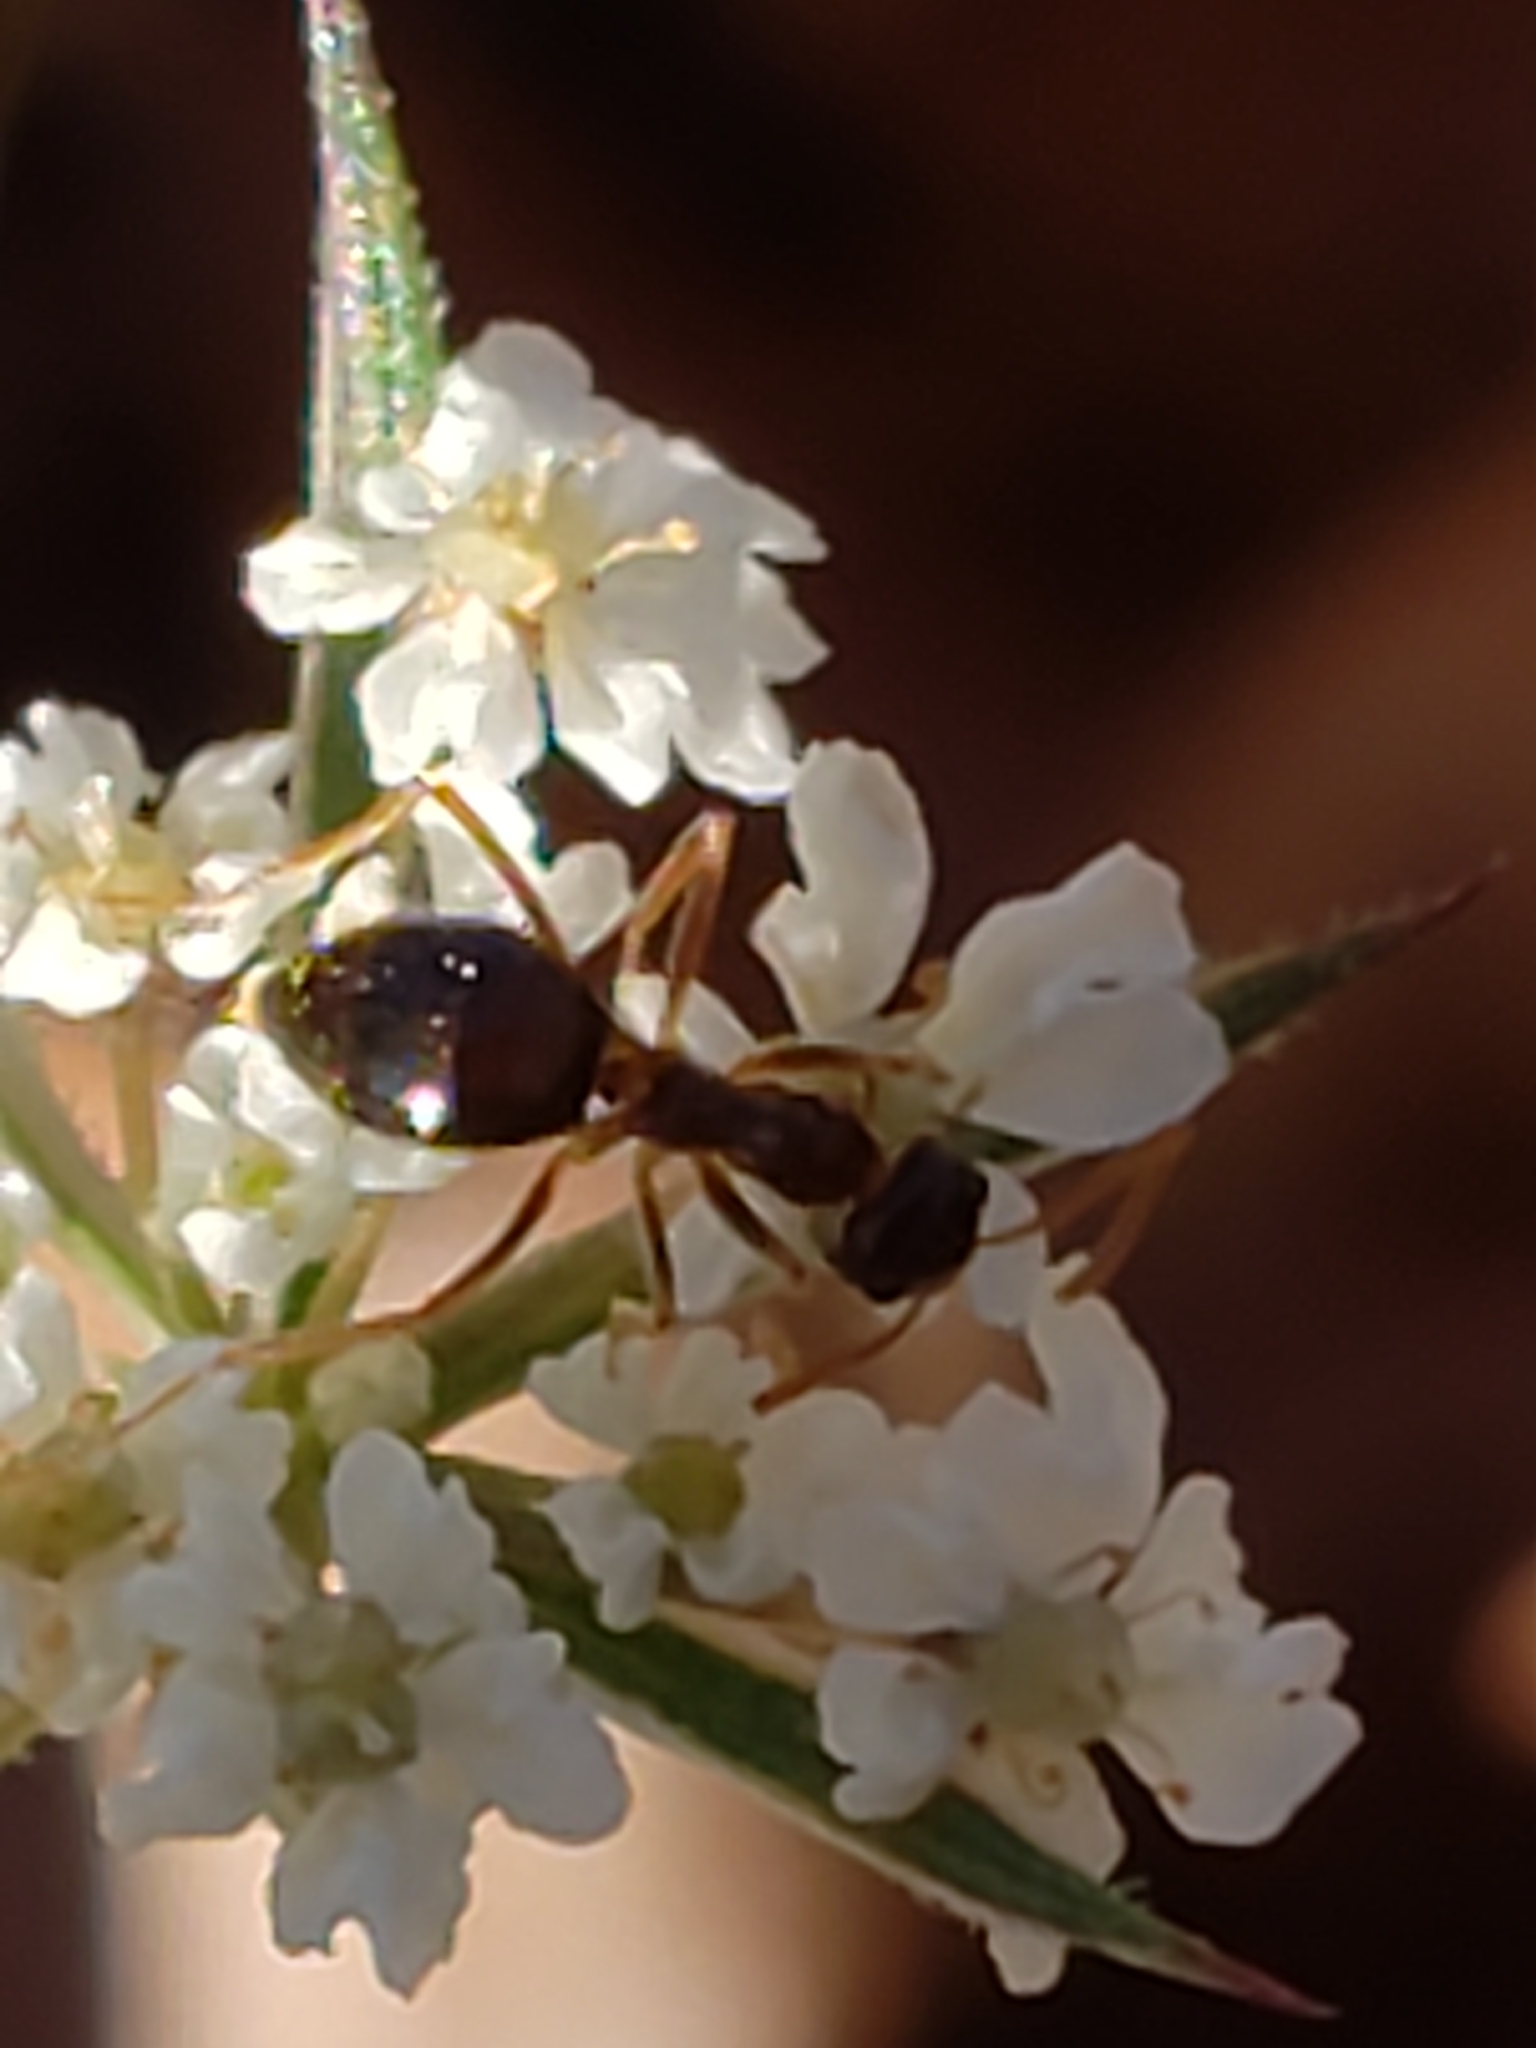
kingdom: Animalia
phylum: Arthropoda
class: Insecta
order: Hymenoptera
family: Formicidae
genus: Prenolepis
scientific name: Prenolepis imparis
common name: Small honey ant
